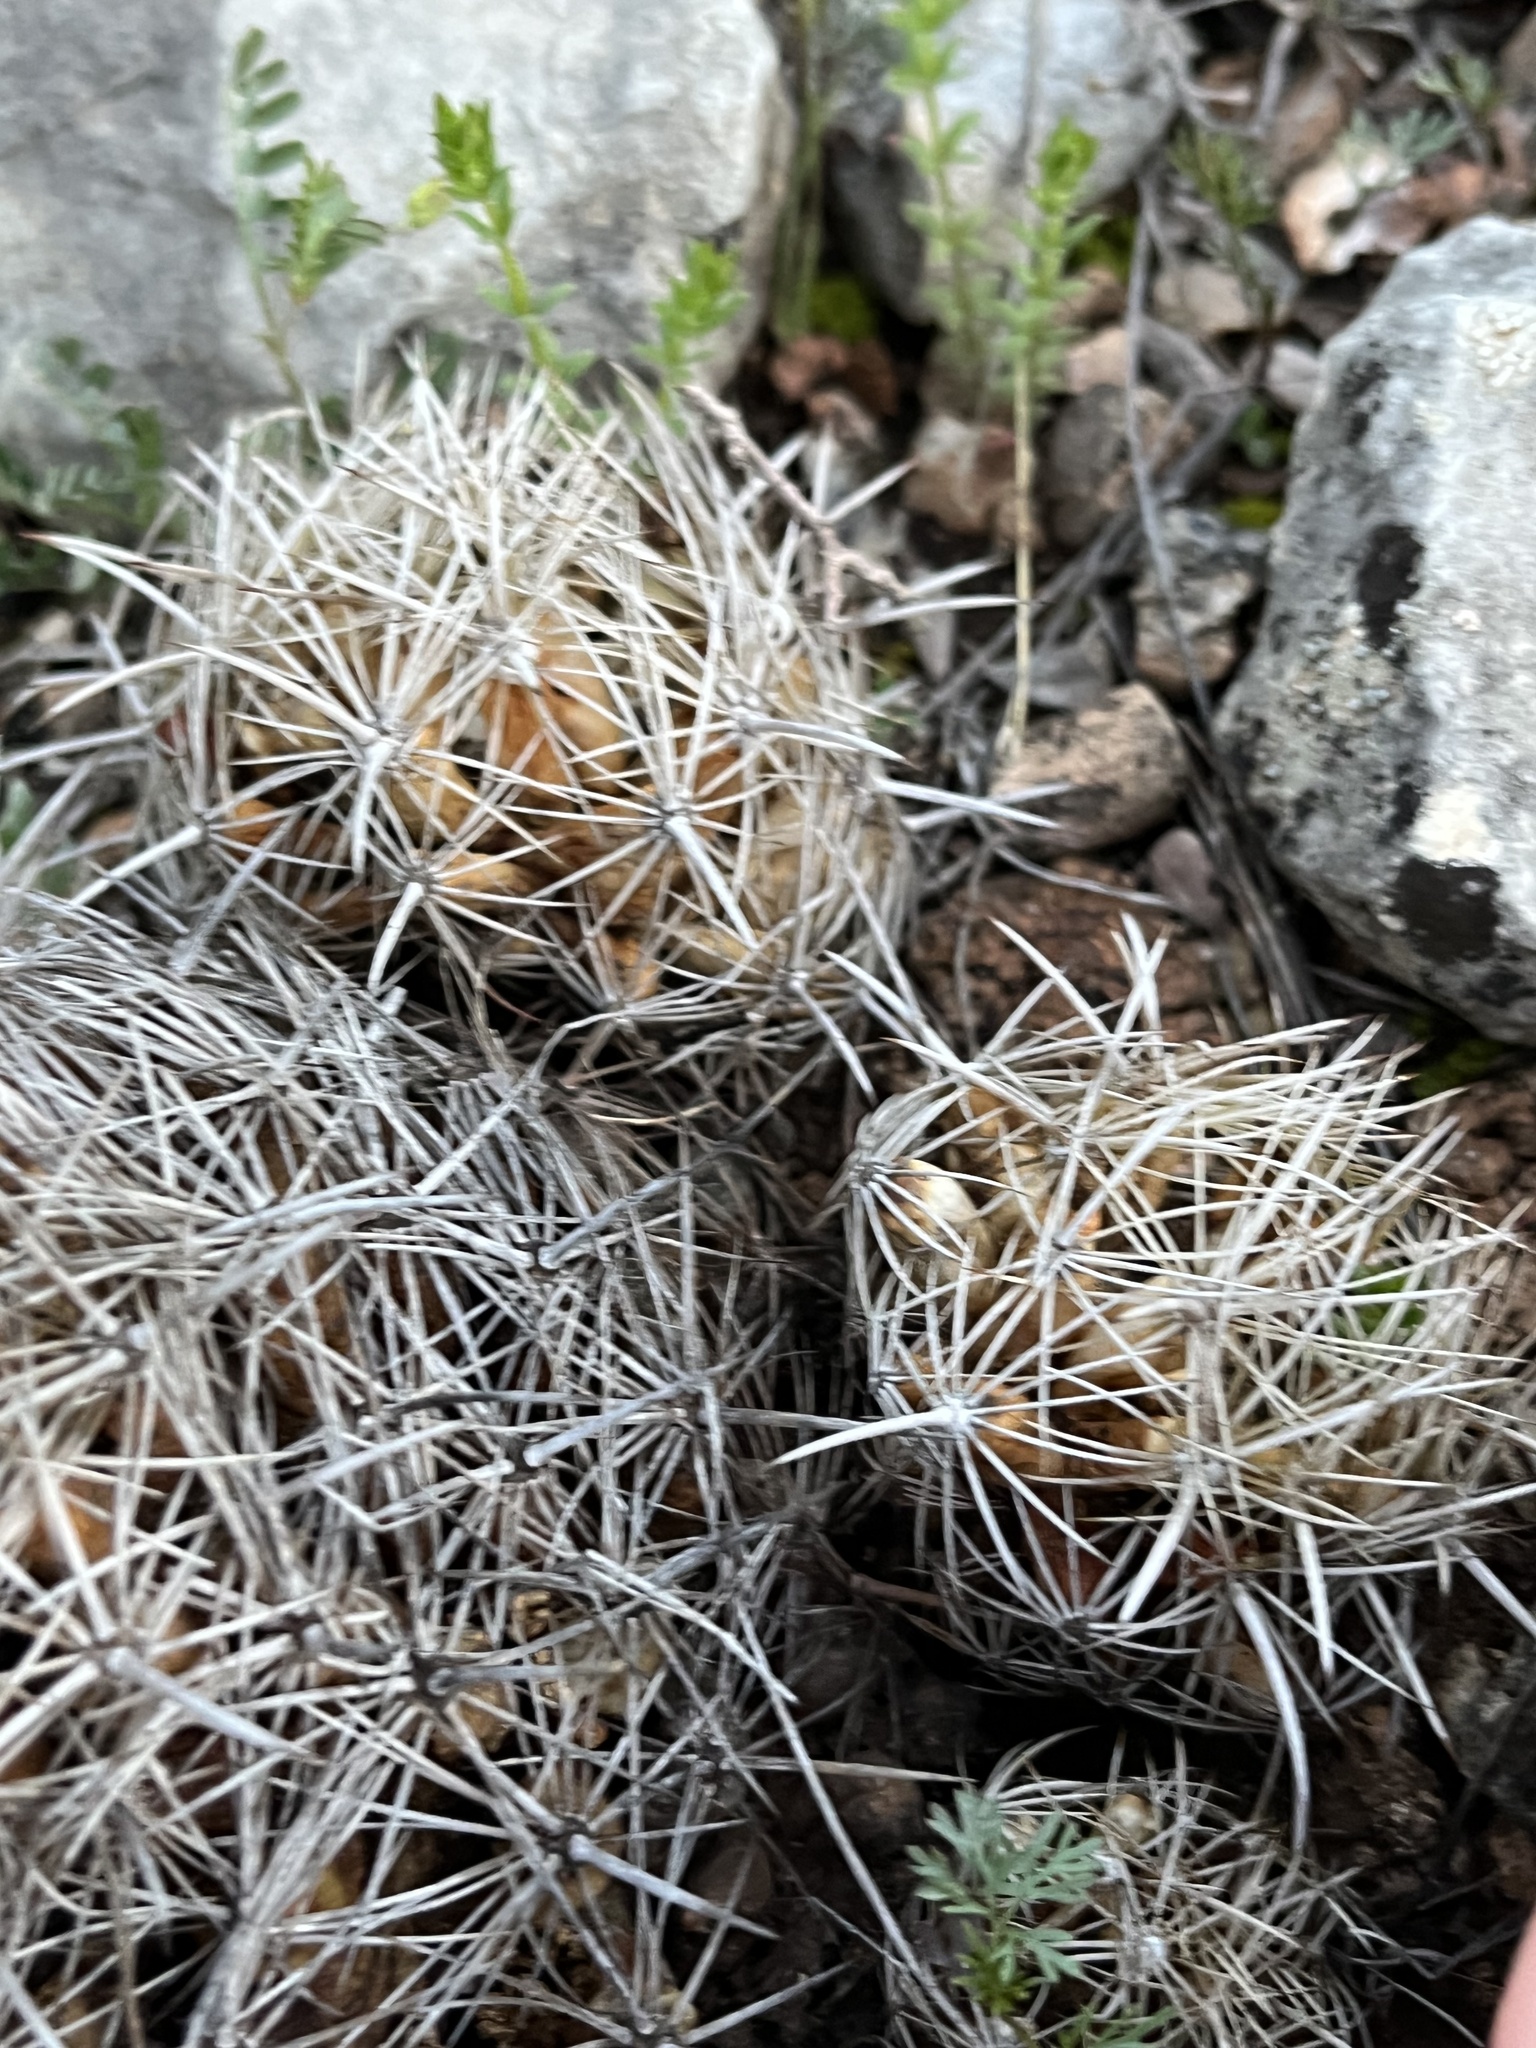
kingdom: Plantae
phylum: Tracheophyta
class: Magnoliopsida
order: Caryophyllales
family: Cactaceae
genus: Coryphantha
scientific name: Coryphantha sulcata
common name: Finger cactus
